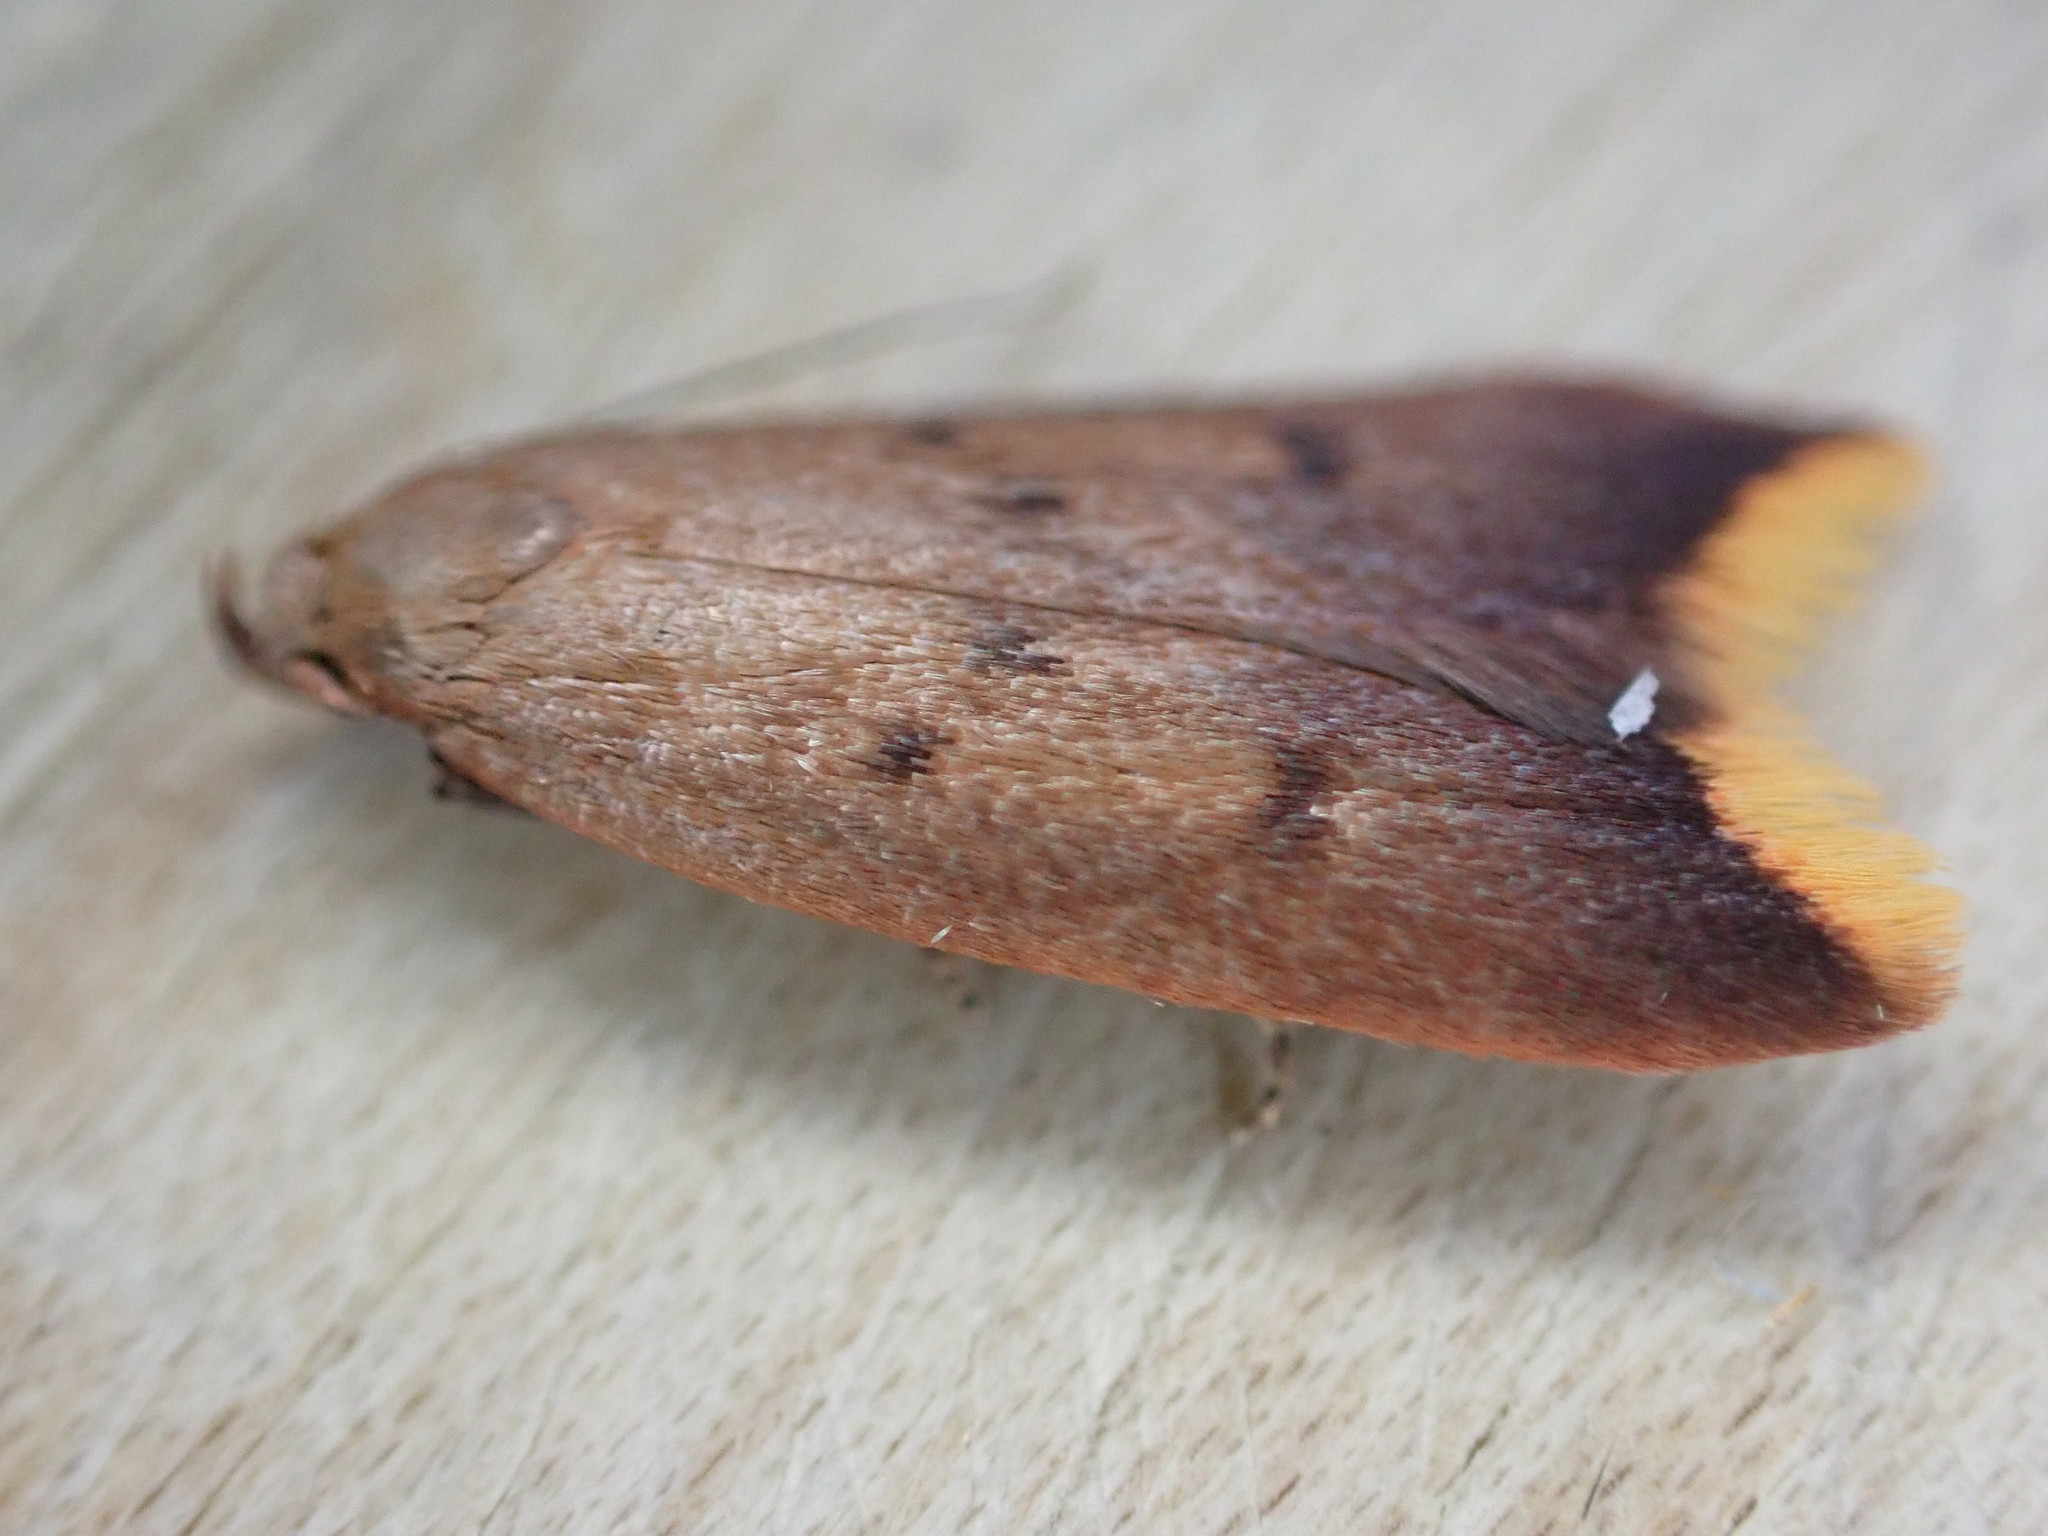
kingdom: Animalia
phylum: Arthropoda
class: Insecta
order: Lepidoptera
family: Oecophoridae
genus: Tachystola
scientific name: Tachystola acroxantha
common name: Ruddy streak
